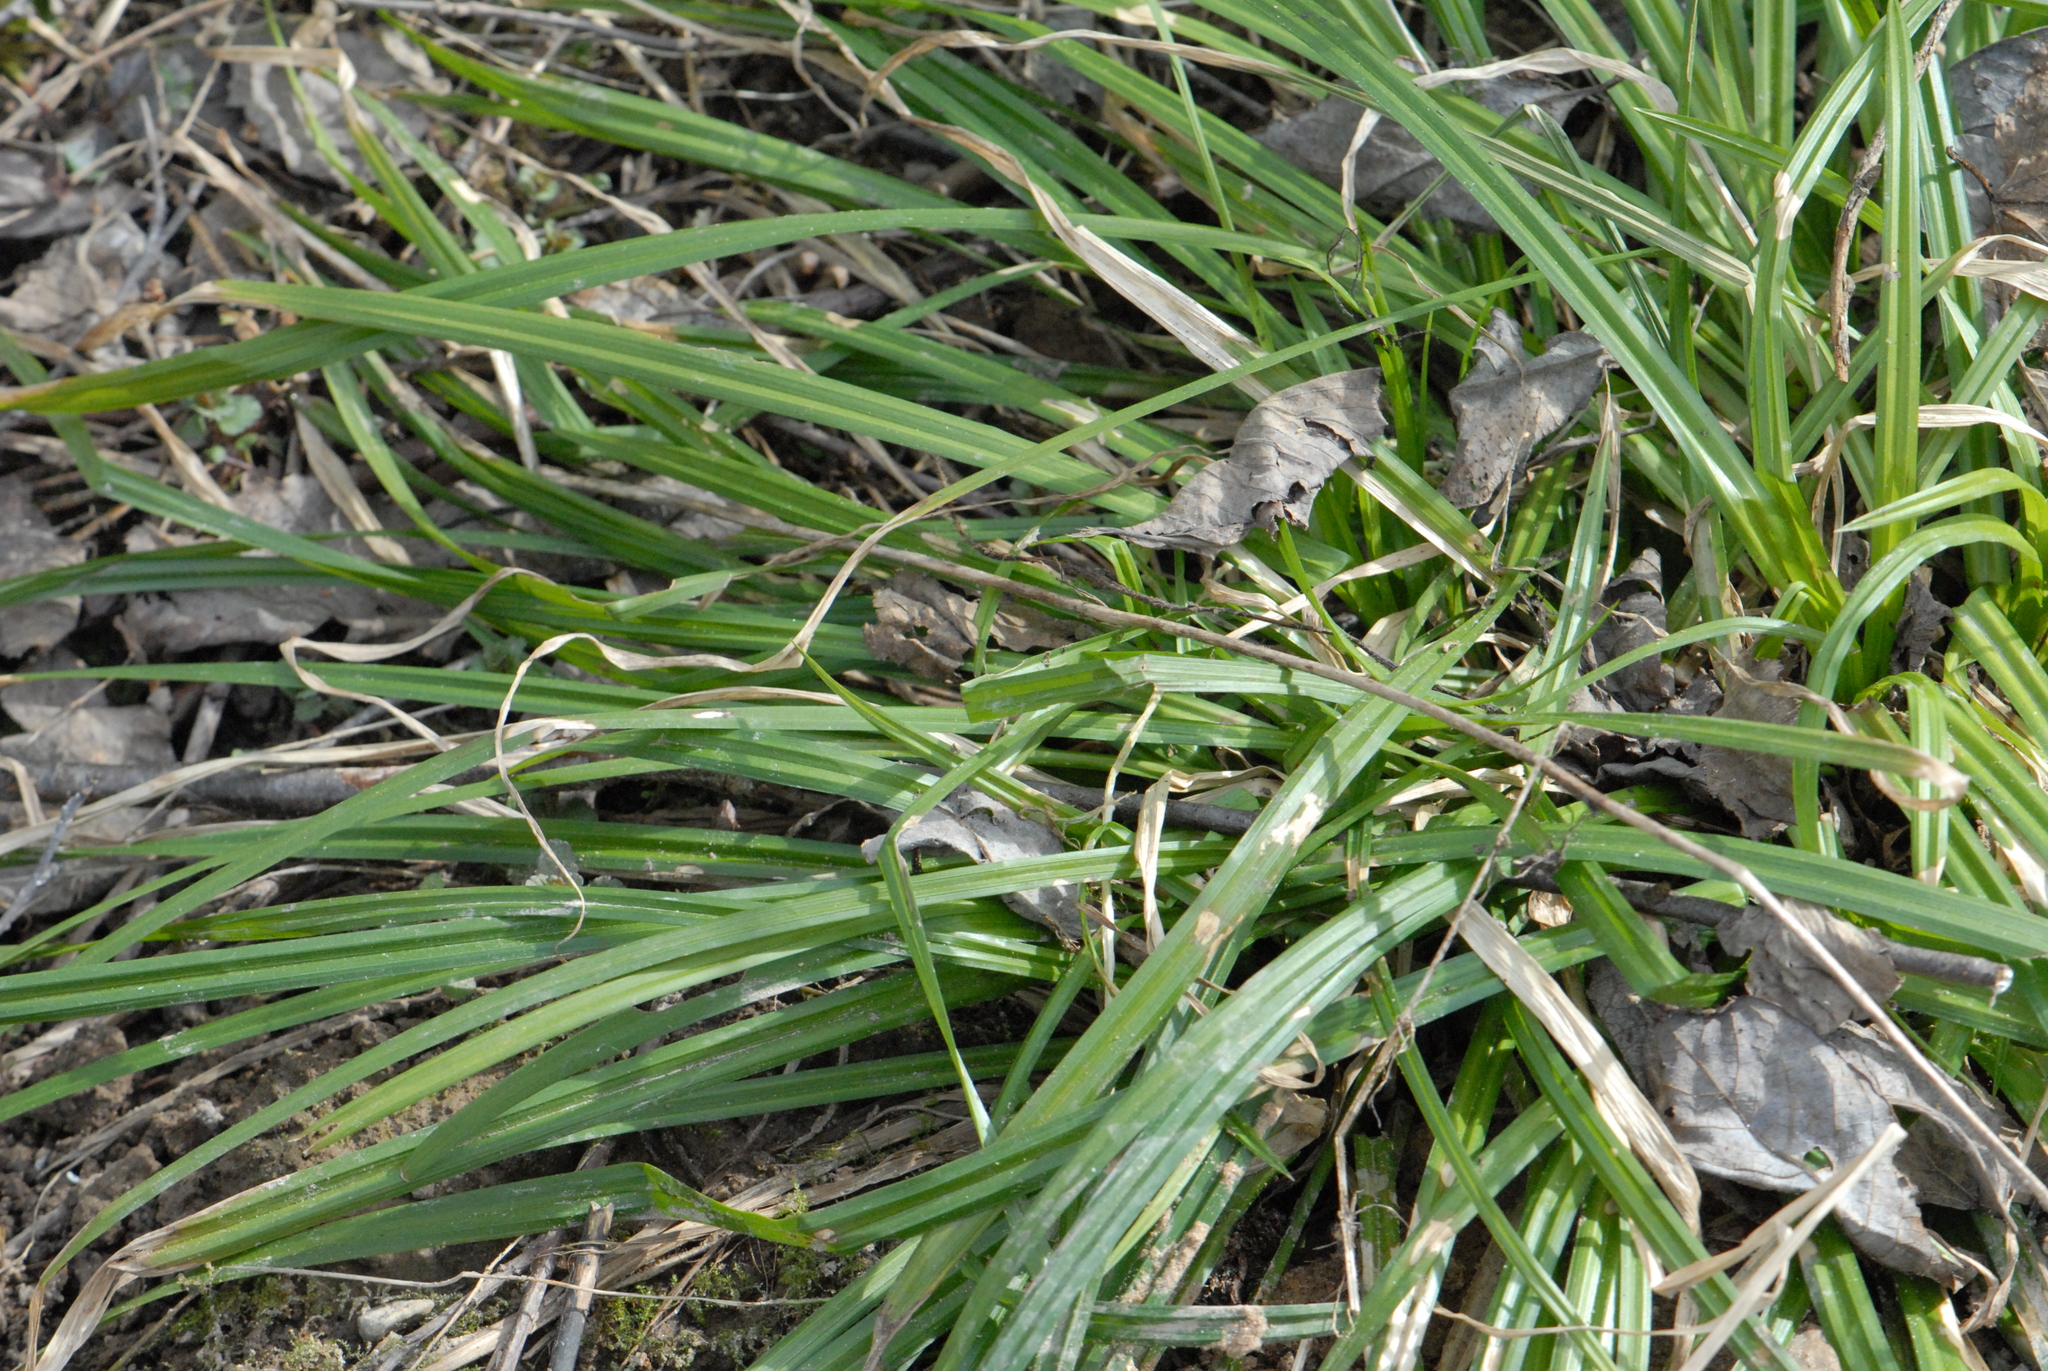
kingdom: Plantae
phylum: Tracheophyta
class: Liliopsida
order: Poales
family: Cyperaceae
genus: Carex
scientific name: Carex sylvatica
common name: Wood-sedge
